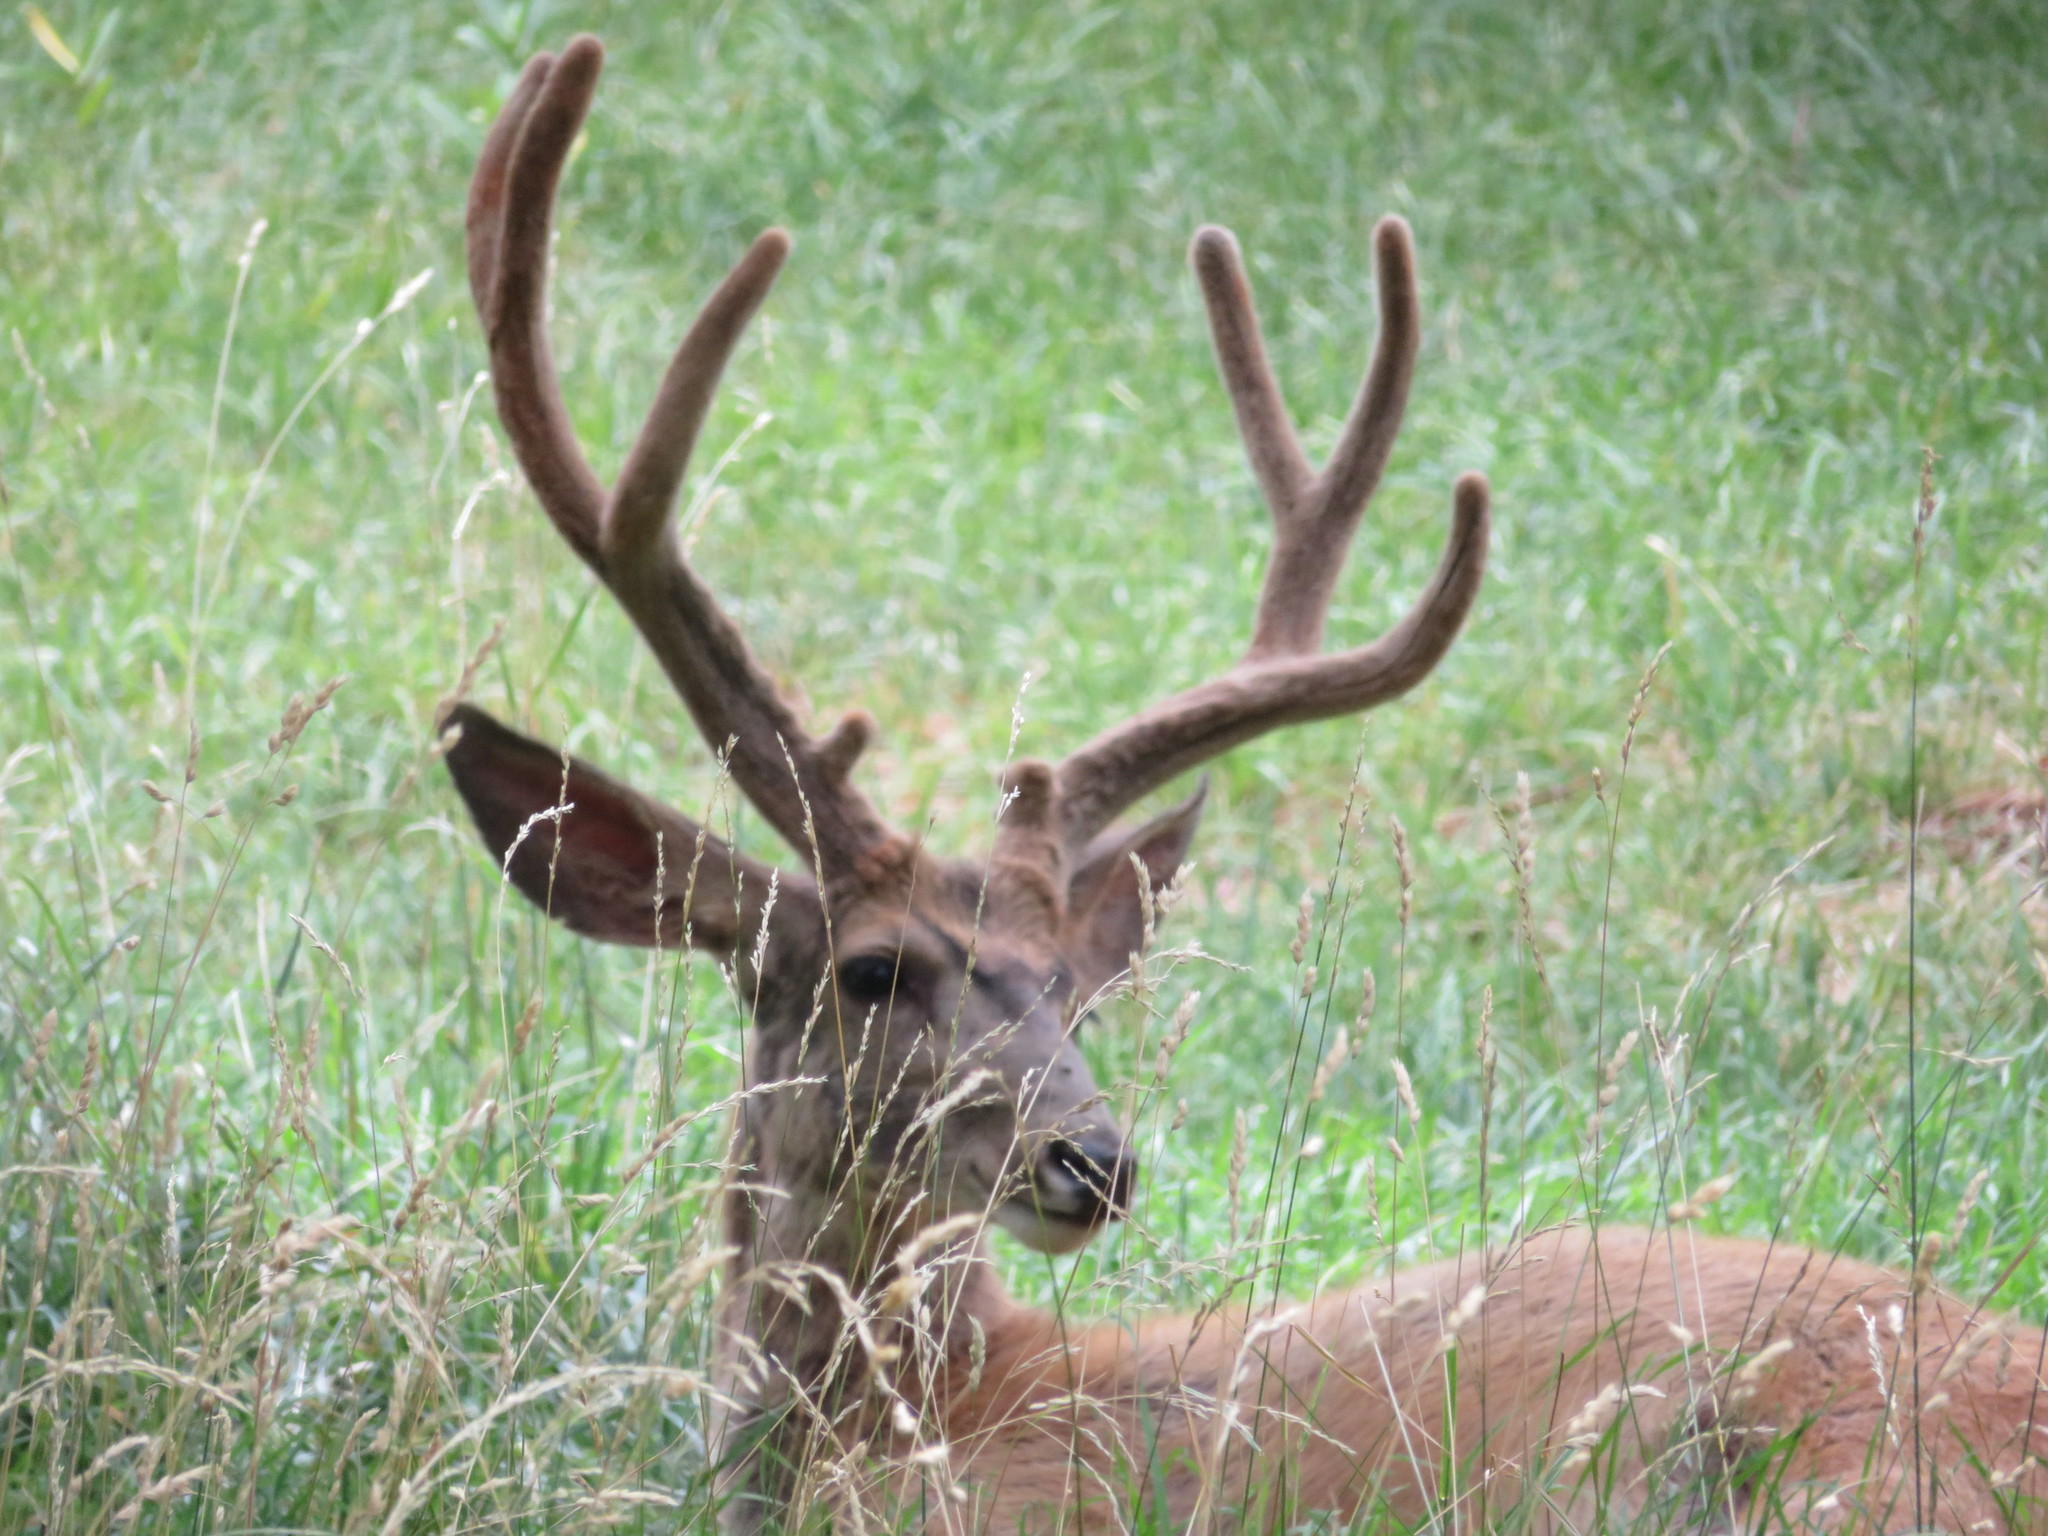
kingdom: Animalia
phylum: Chordata
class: Mammalia
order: Artiodactyla
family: Cervidae
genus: Odocoileus
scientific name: Odocoileus hemionus
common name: Mule deer
